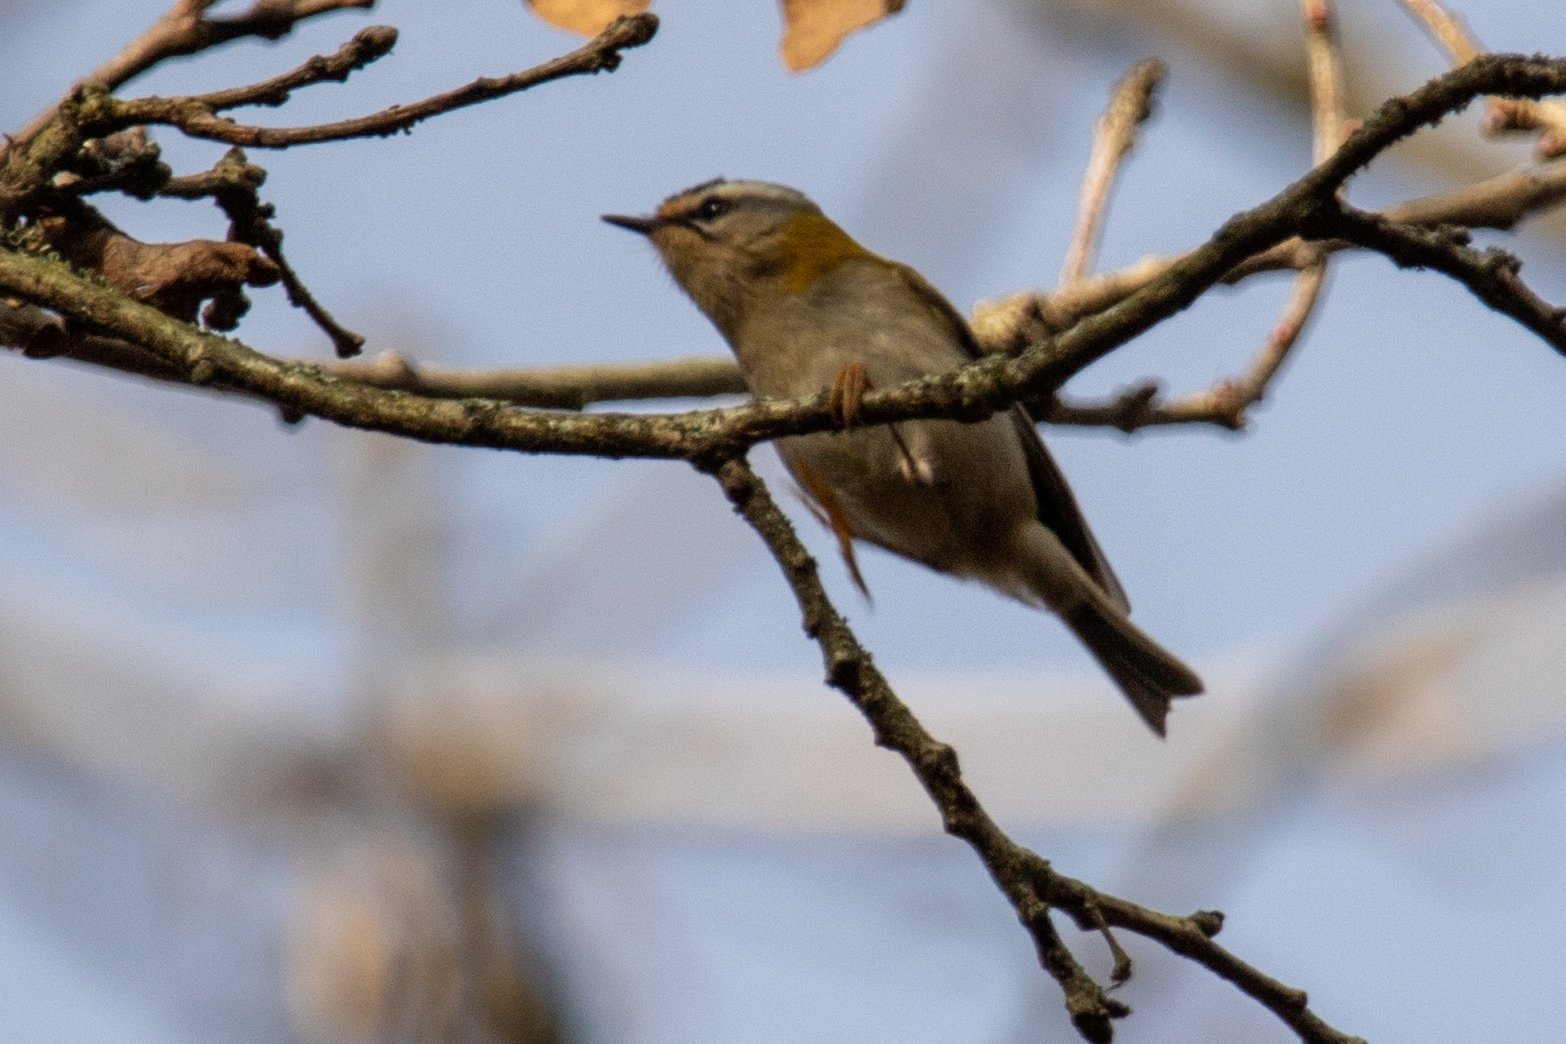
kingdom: Animalia
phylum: Chordata
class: Aves
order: Passeriformes
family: Regulidae
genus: Regulus
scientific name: Regulus ignicapilla
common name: Firecrest
